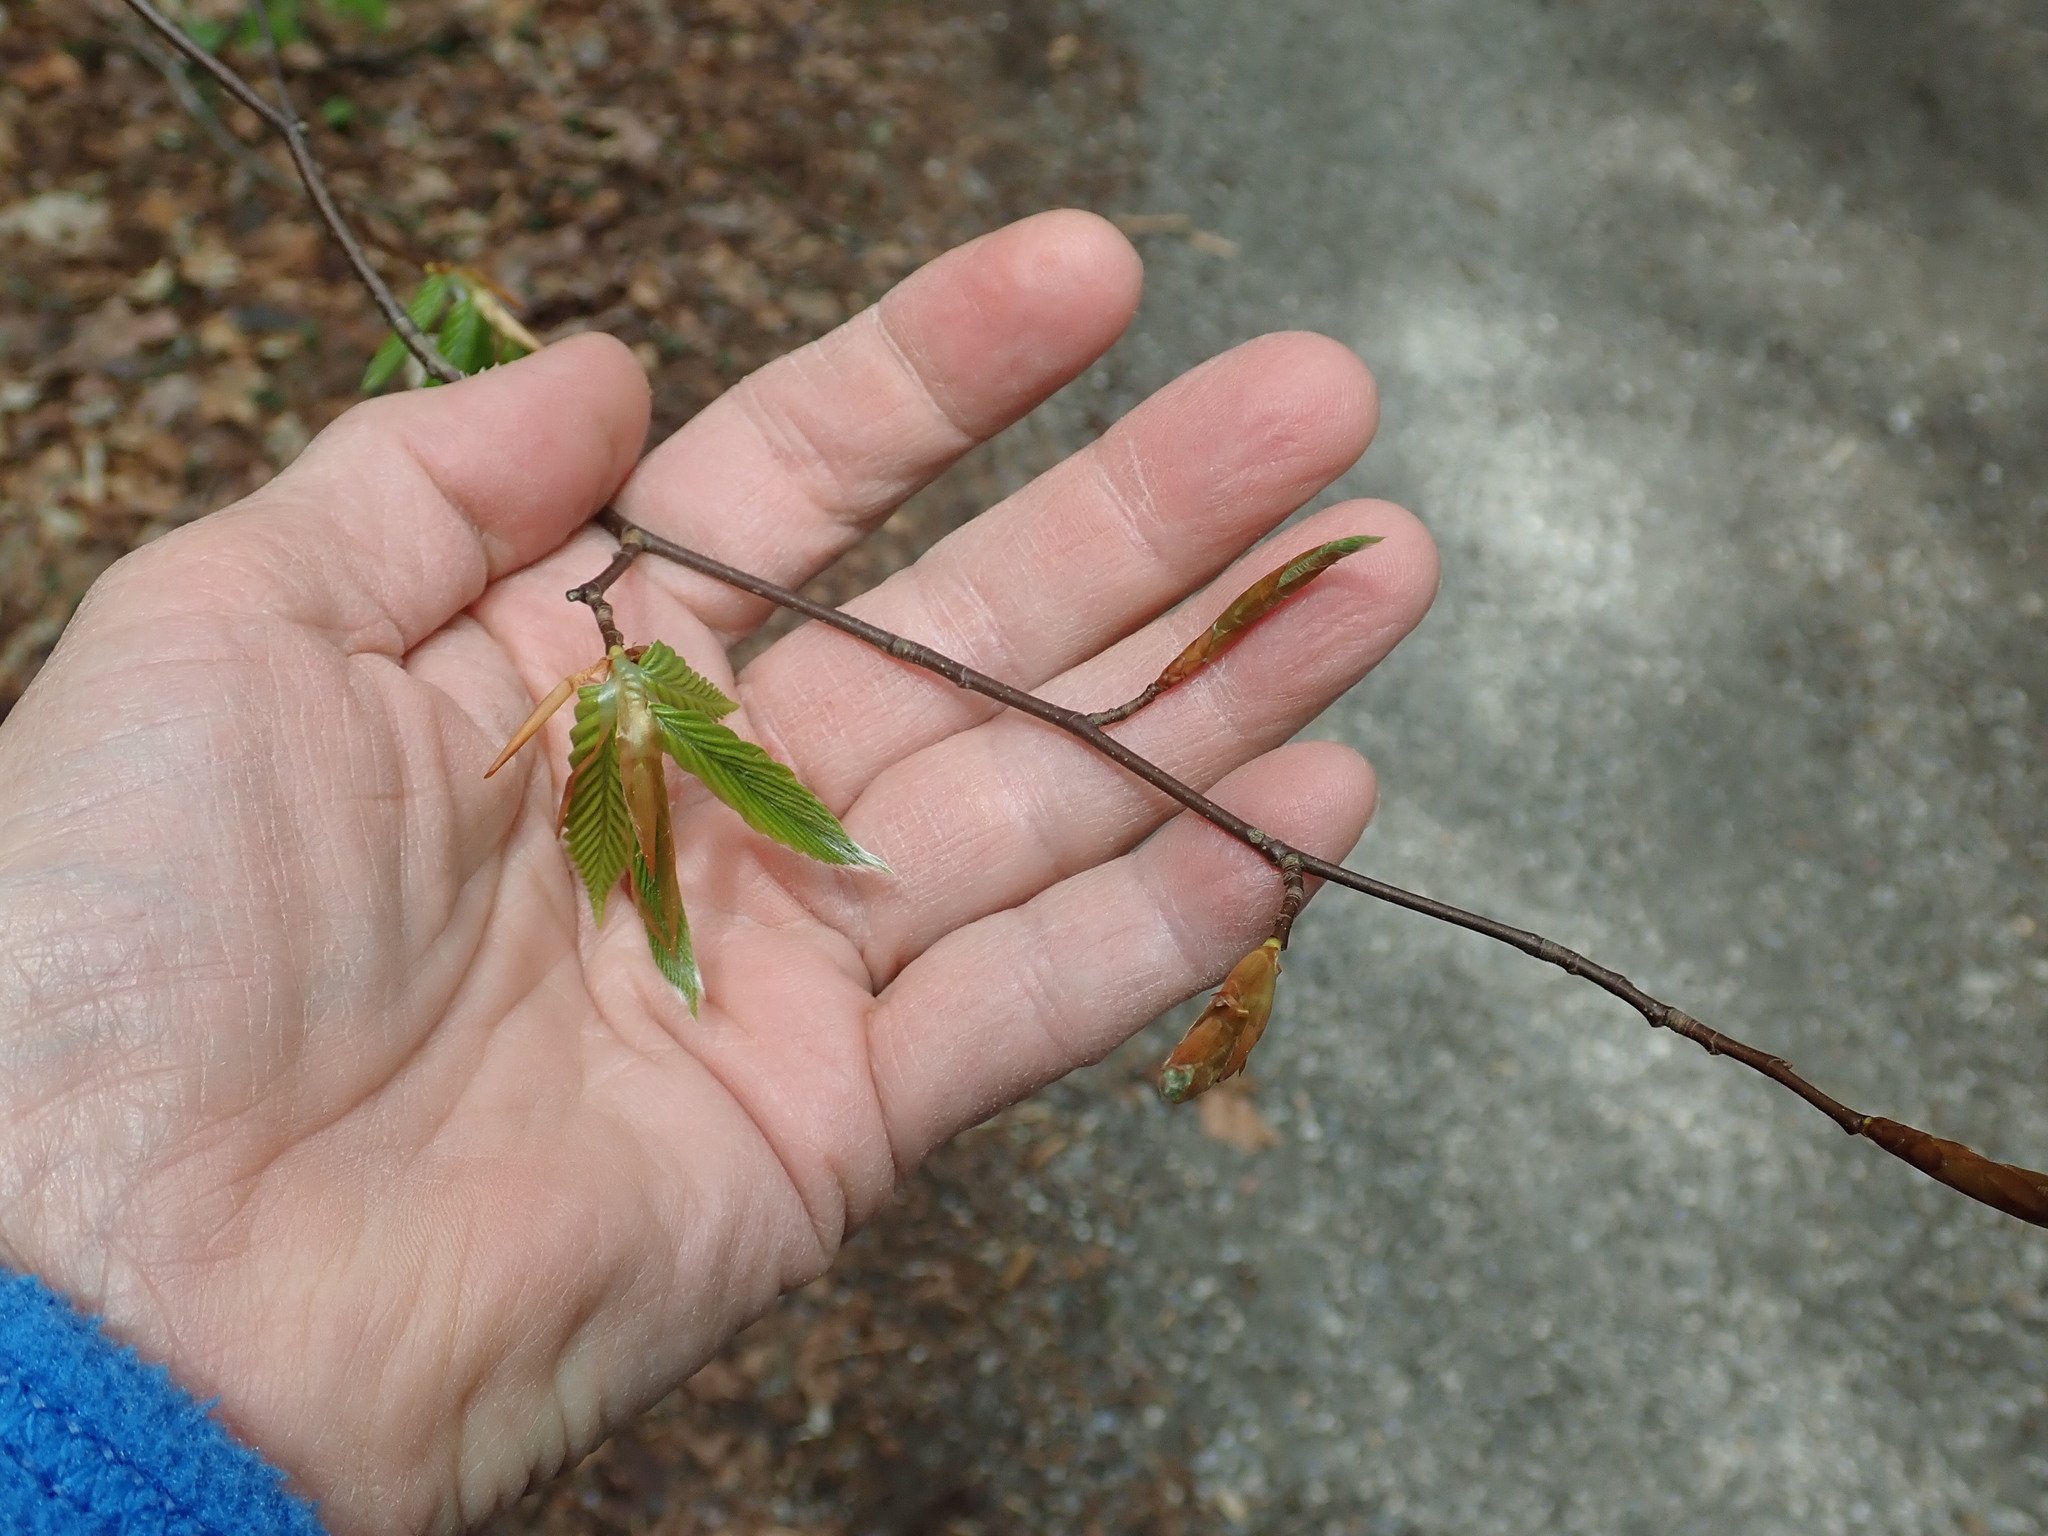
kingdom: Plantae
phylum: Tracheophyta
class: Magnoliopsida
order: Fagales
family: Fagaceae
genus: Fagus
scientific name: Fagus grandifolia
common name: American beech
